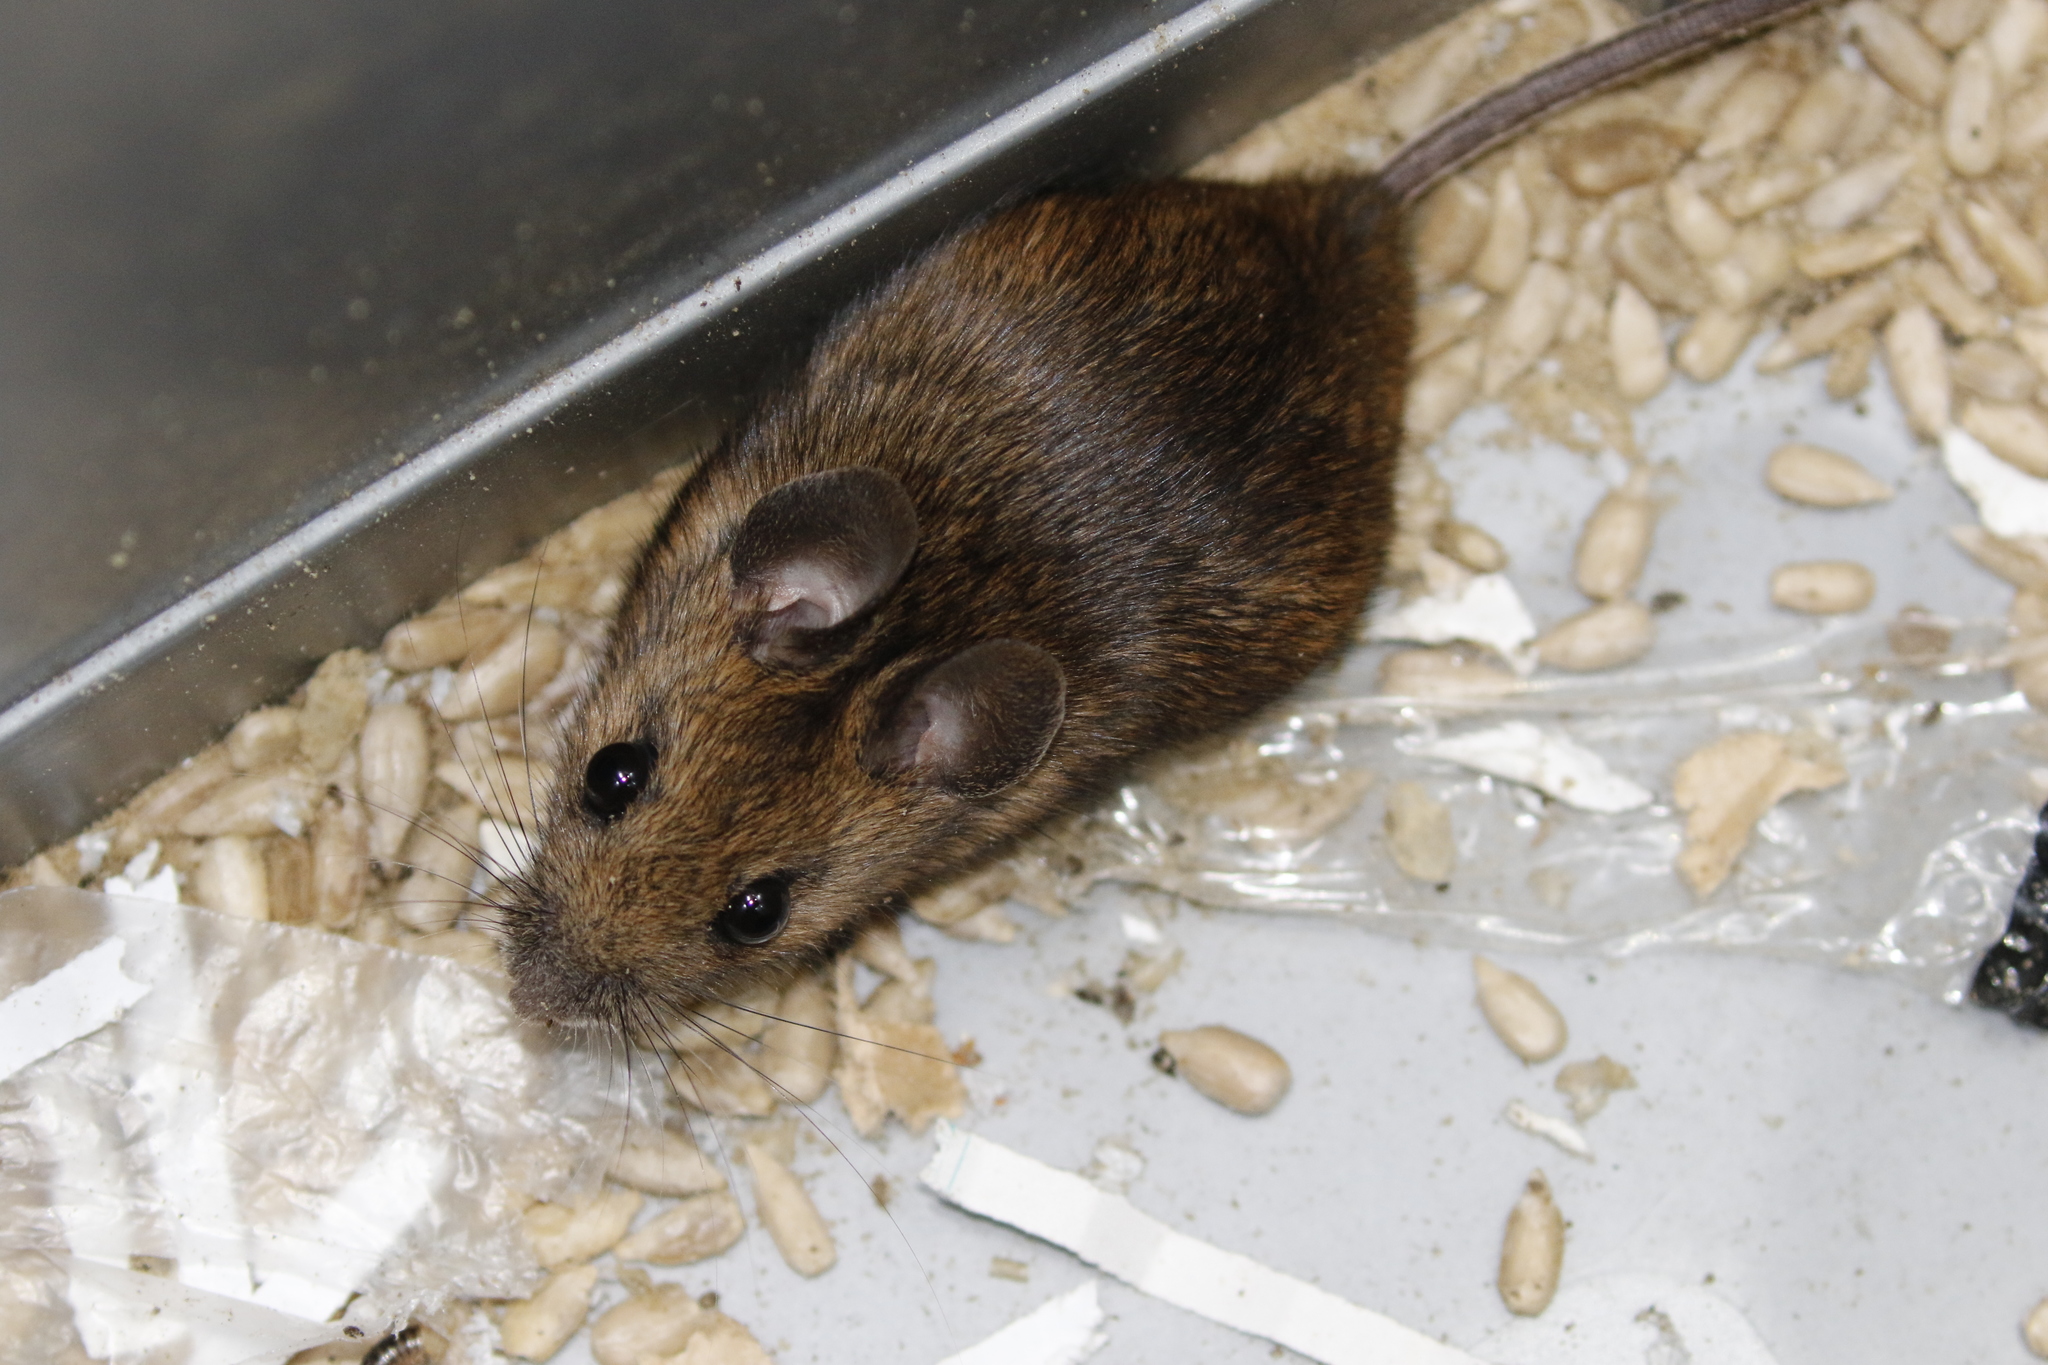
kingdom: Animalia
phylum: Chordata
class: Mammalia
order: Rodentia
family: Muridae
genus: Apodemus
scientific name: Apodemus sylvaticus
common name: Wood mouse
